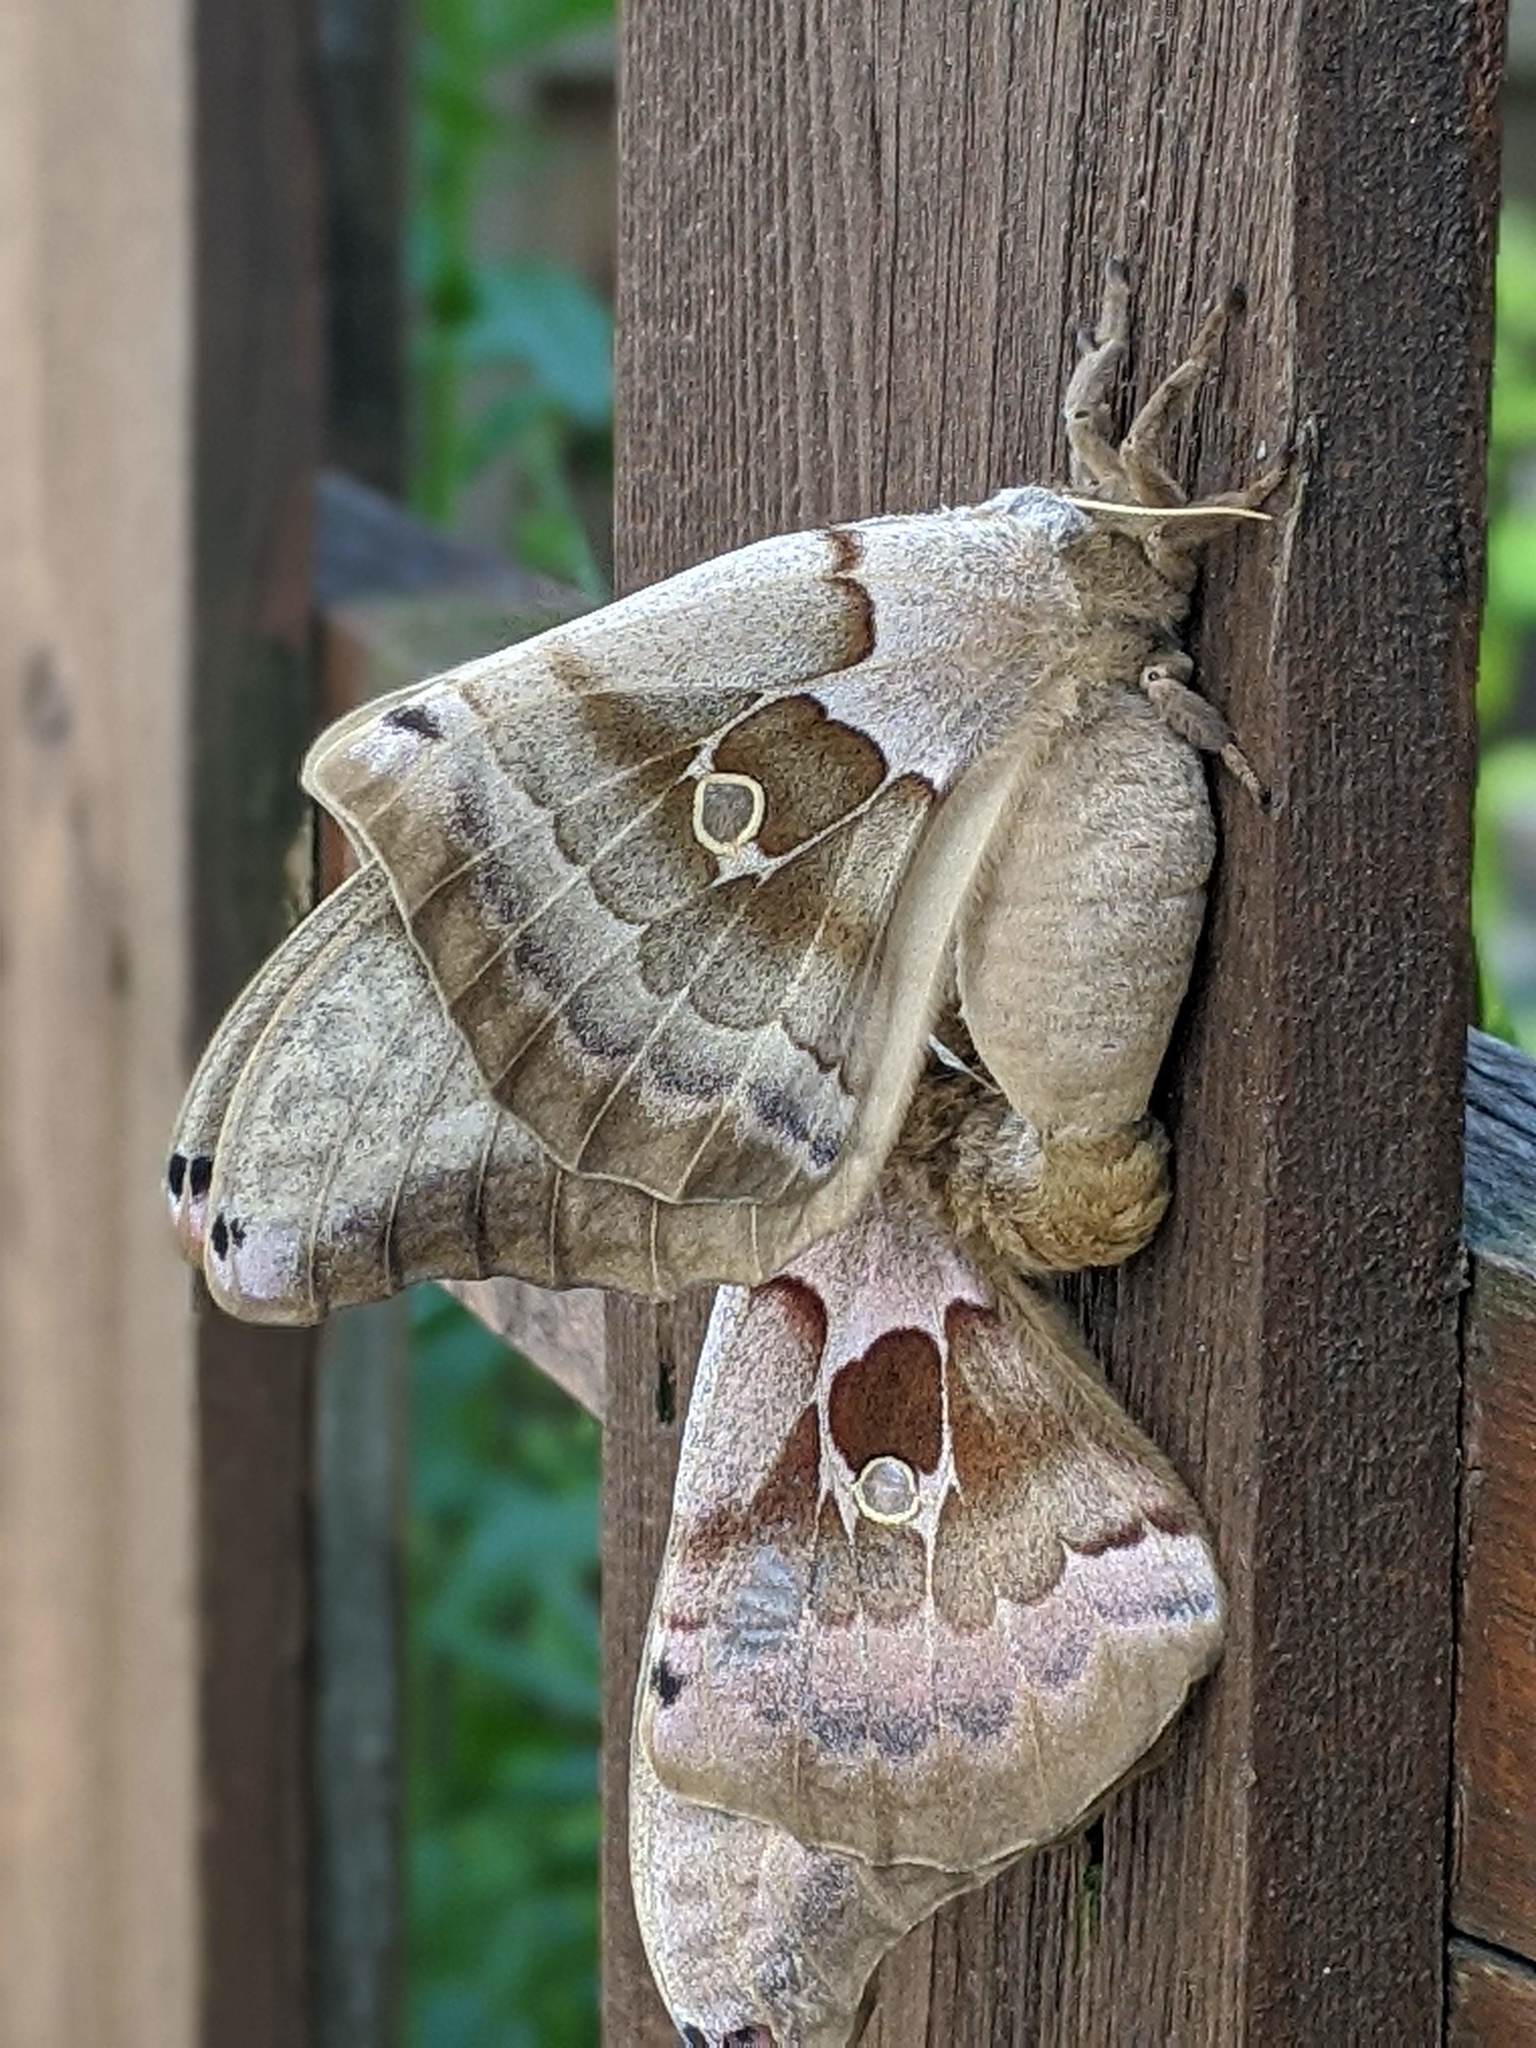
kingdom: Animalia
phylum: Arthropoda
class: Insecta
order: Lepidoptera
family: Saturniidae
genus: Antheraea
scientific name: Antheraea polyphemus
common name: Polyphemus moth
